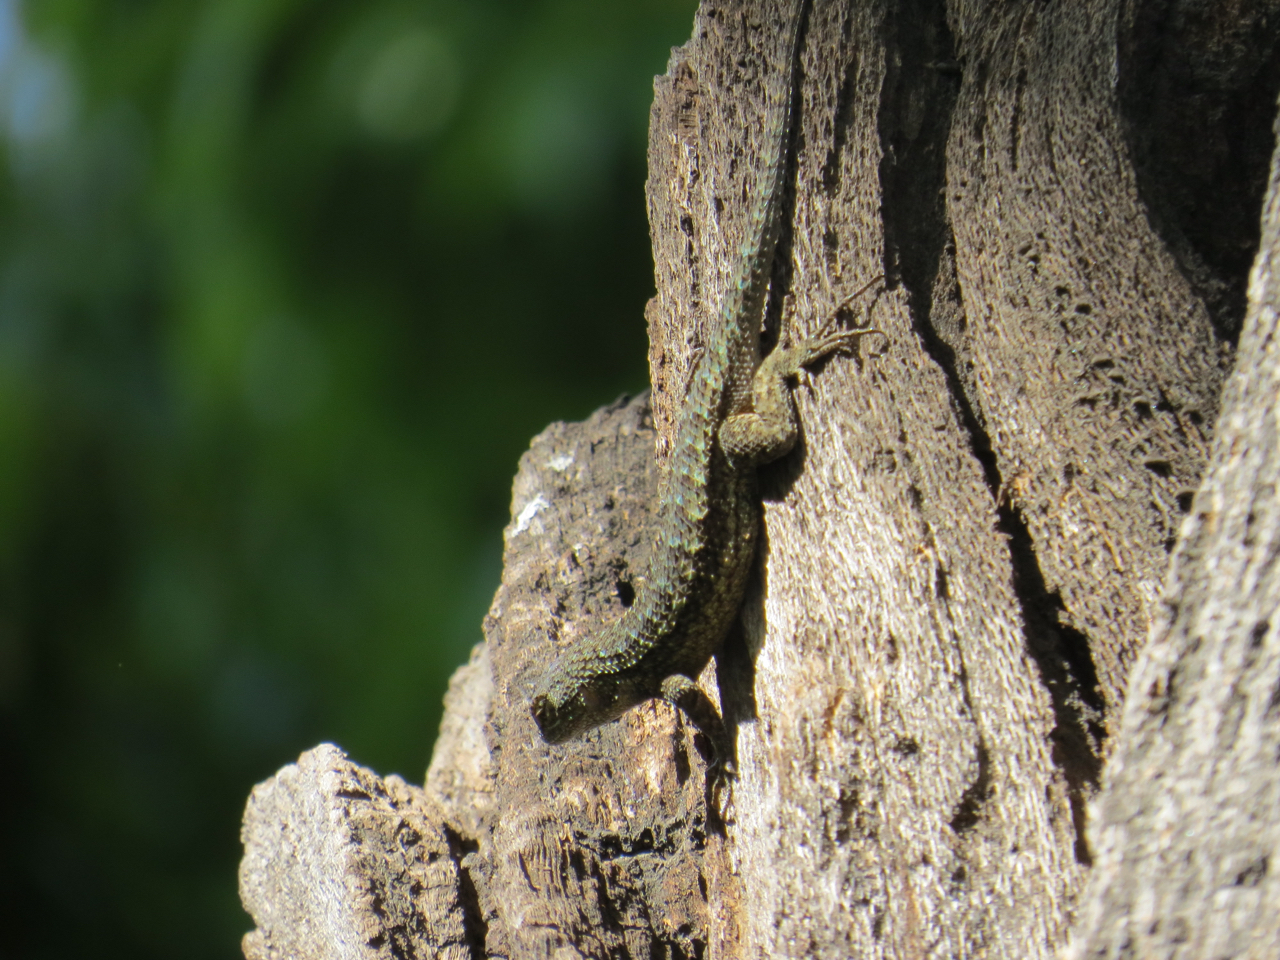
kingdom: Animalia
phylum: Chordata
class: Squamata
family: Phrynosomatidae
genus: Sceloporus
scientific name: Sceloporus occidentalis
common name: Western fence lizard
